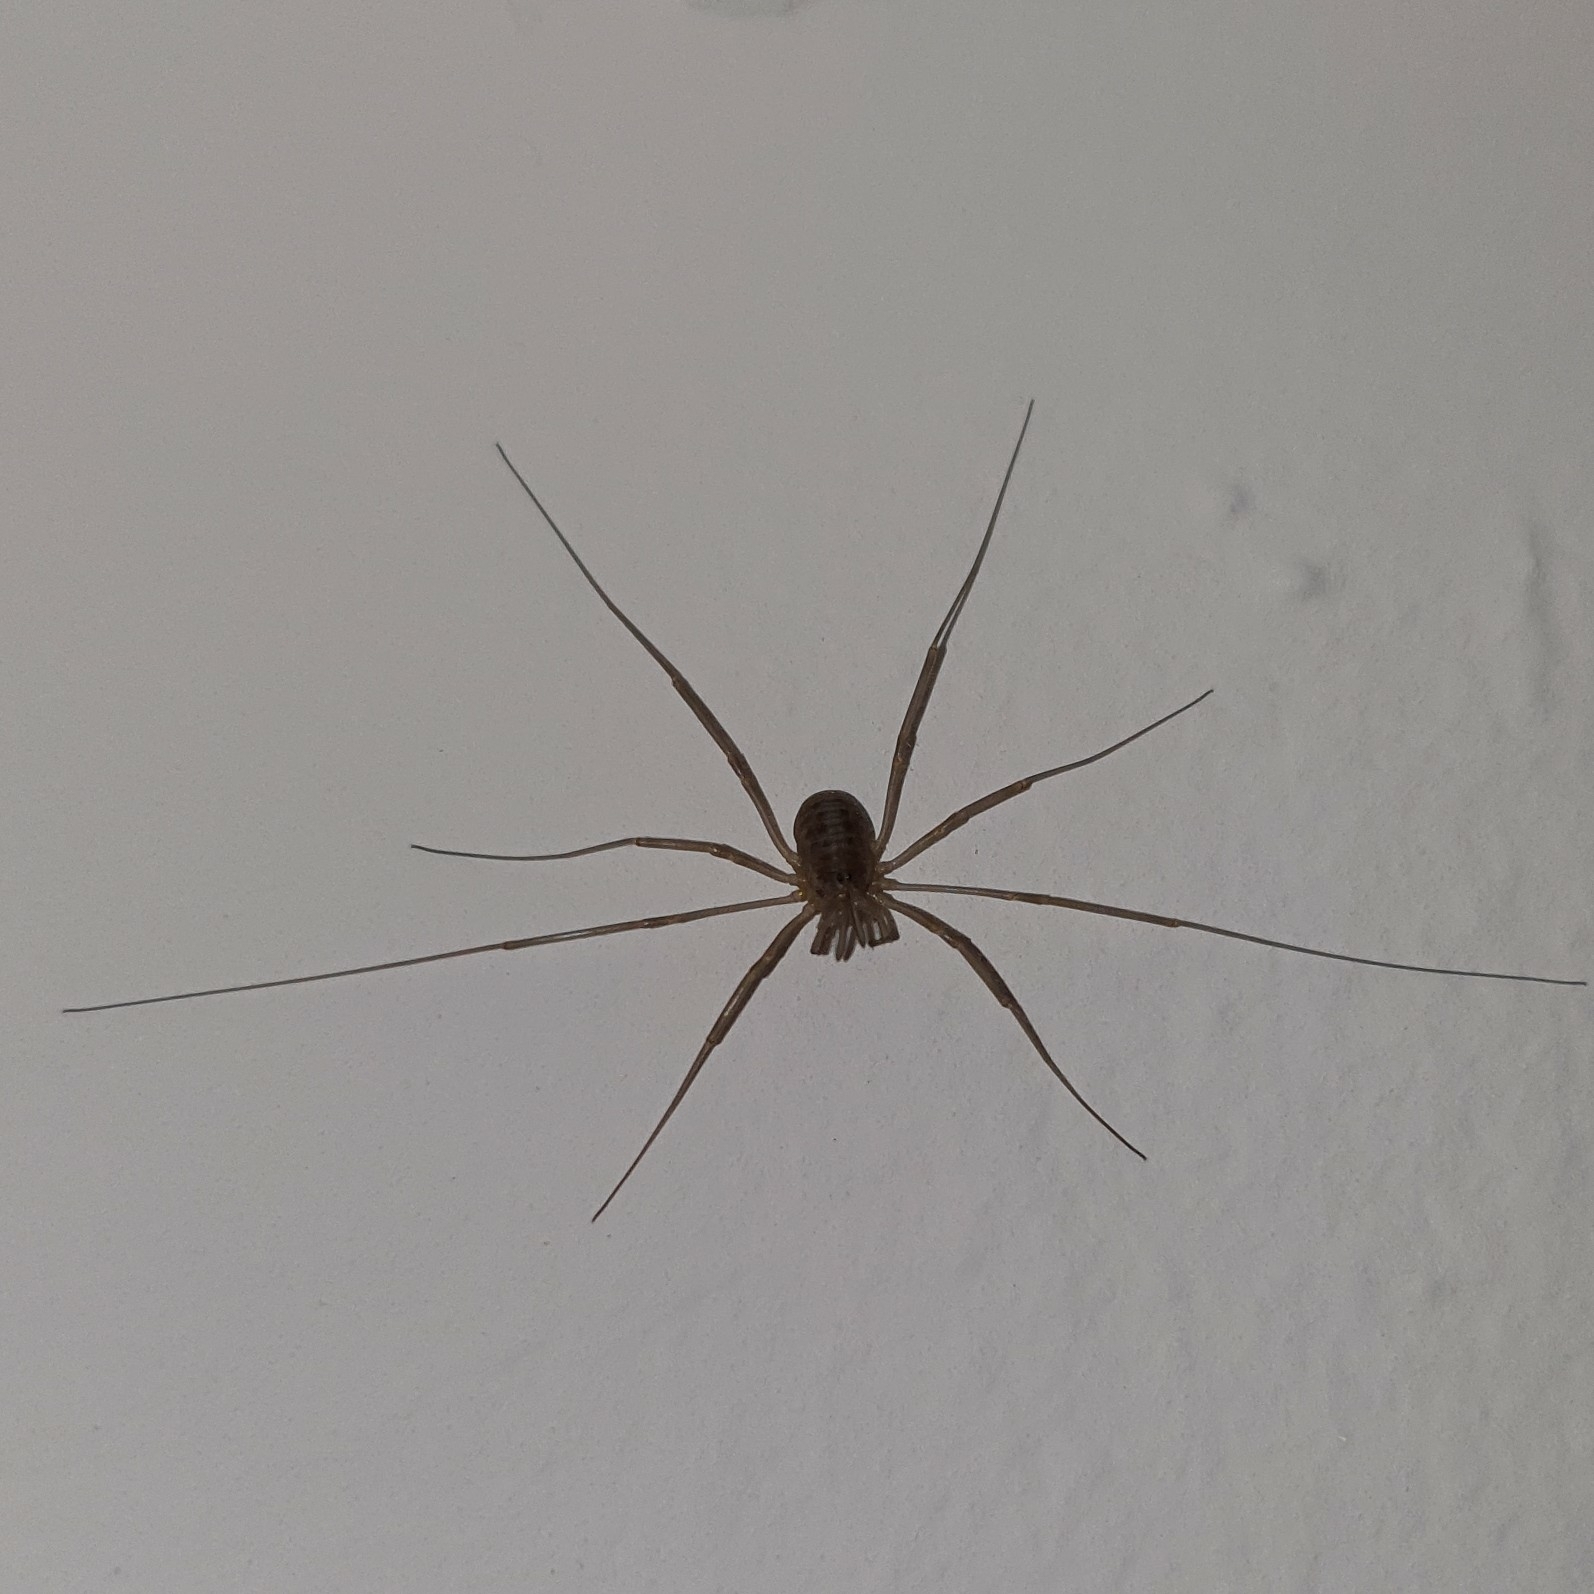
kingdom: Animalia
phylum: Arthropoda
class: Arachnida
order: Opiliones
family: Phalangiidae
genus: Dicranopalpus
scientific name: Dicranopalpus gasteinensis
